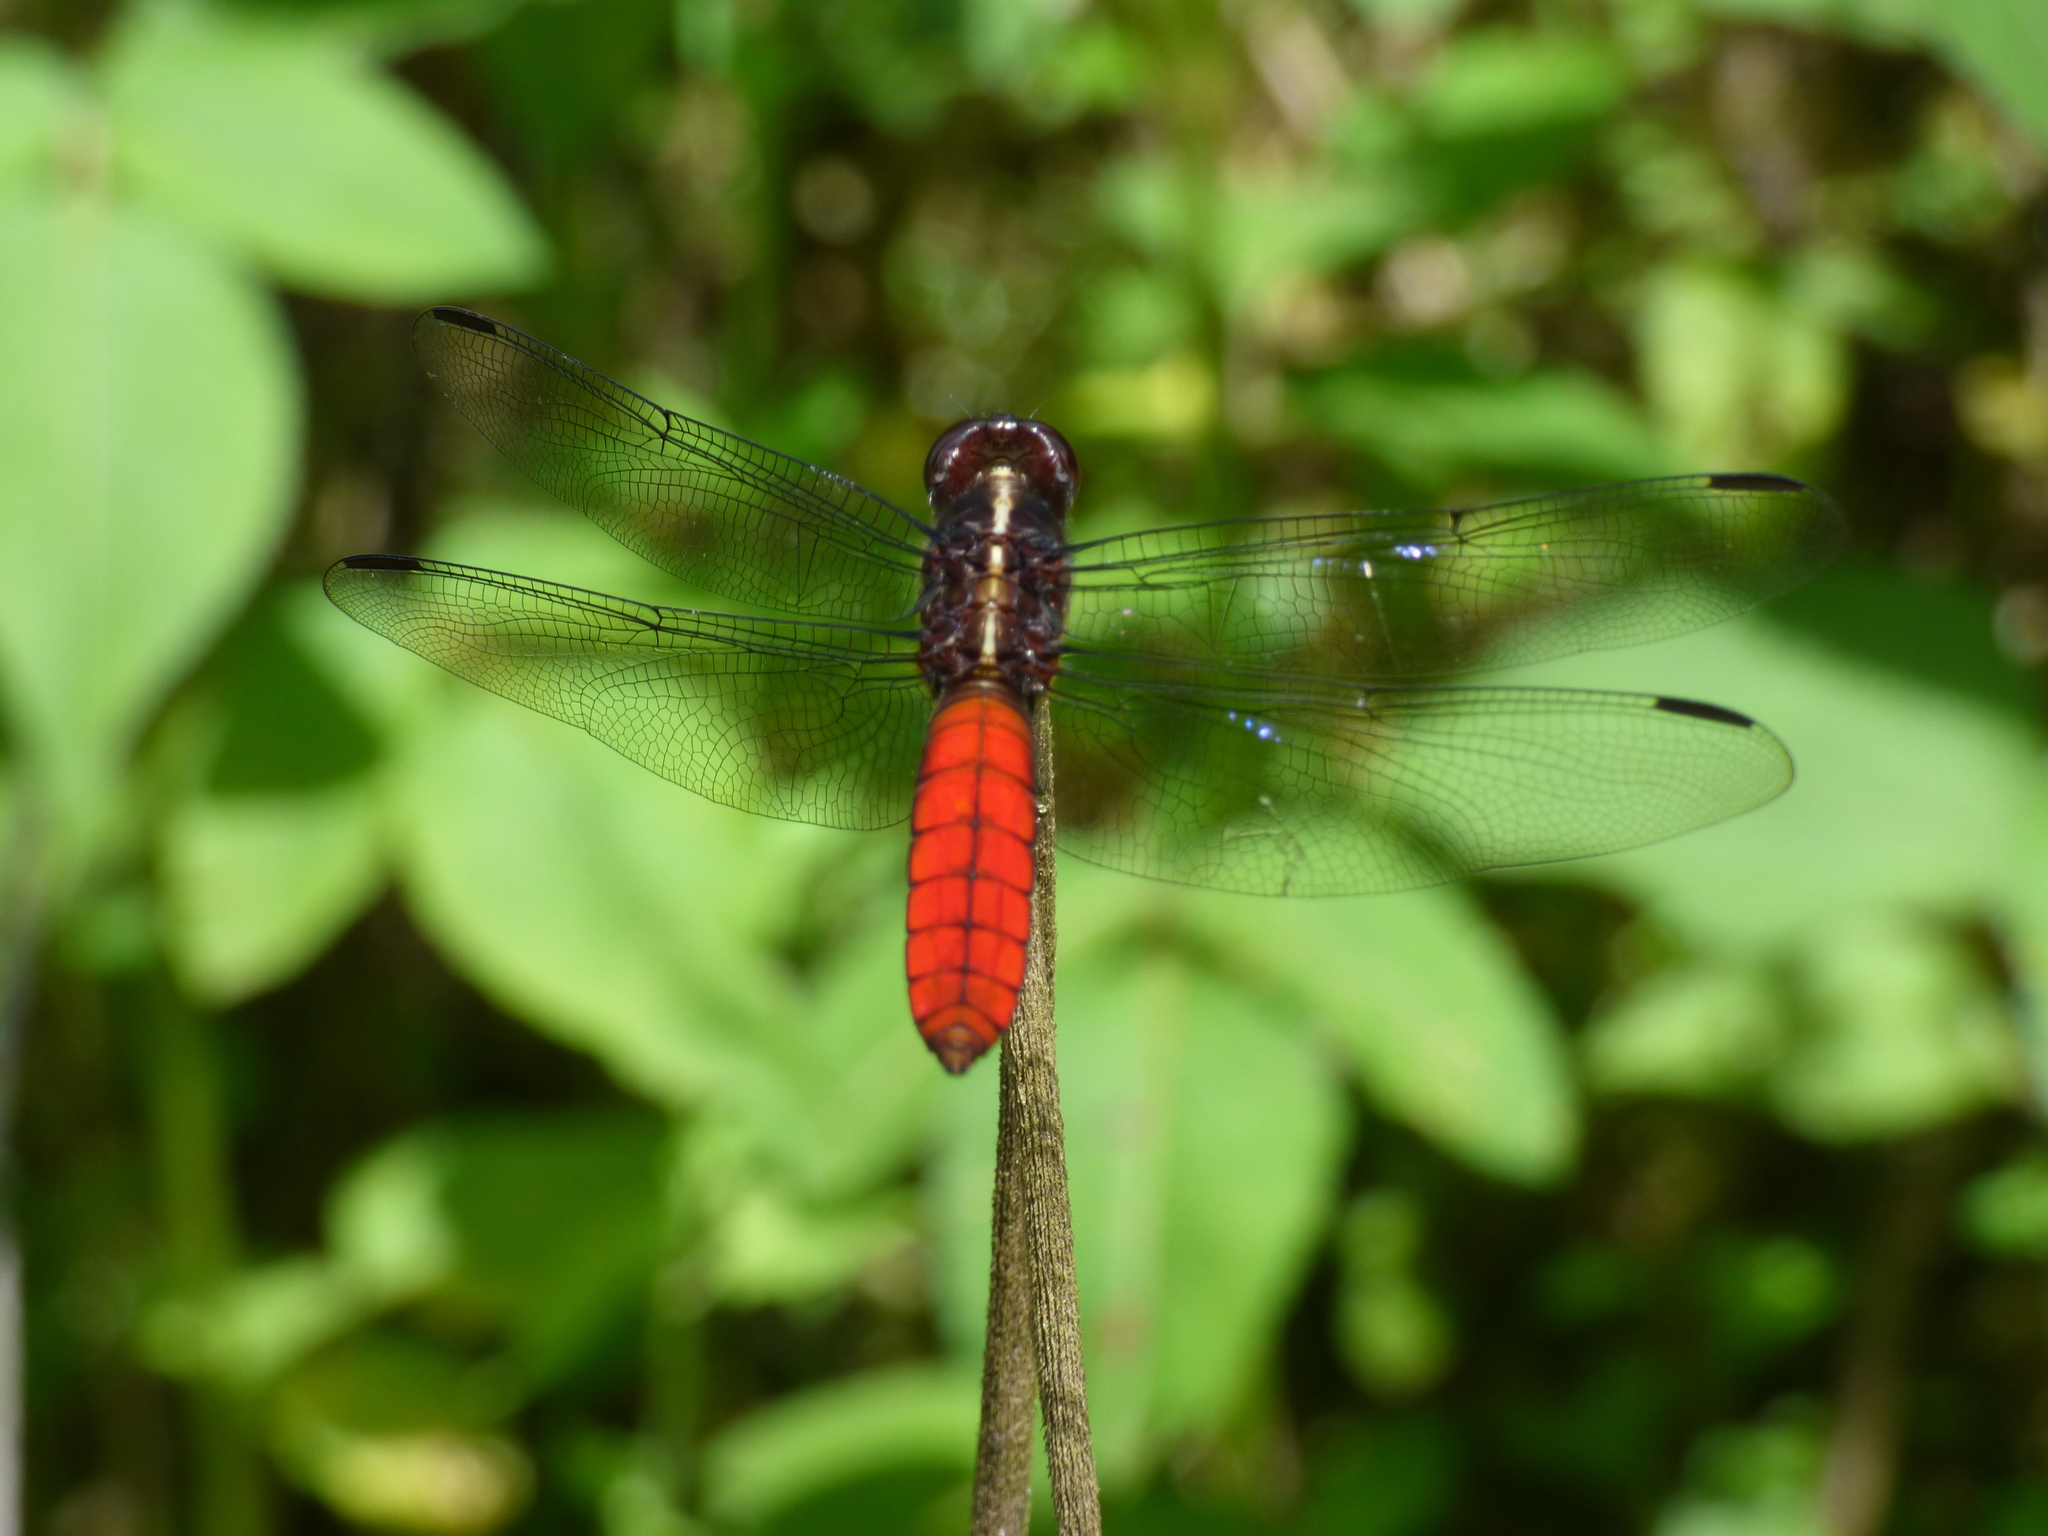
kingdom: Animalia
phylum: Arthropoda
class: Insecta
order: Odonata
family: Libellulidae
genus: Libellula
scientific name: Libellula herculea
